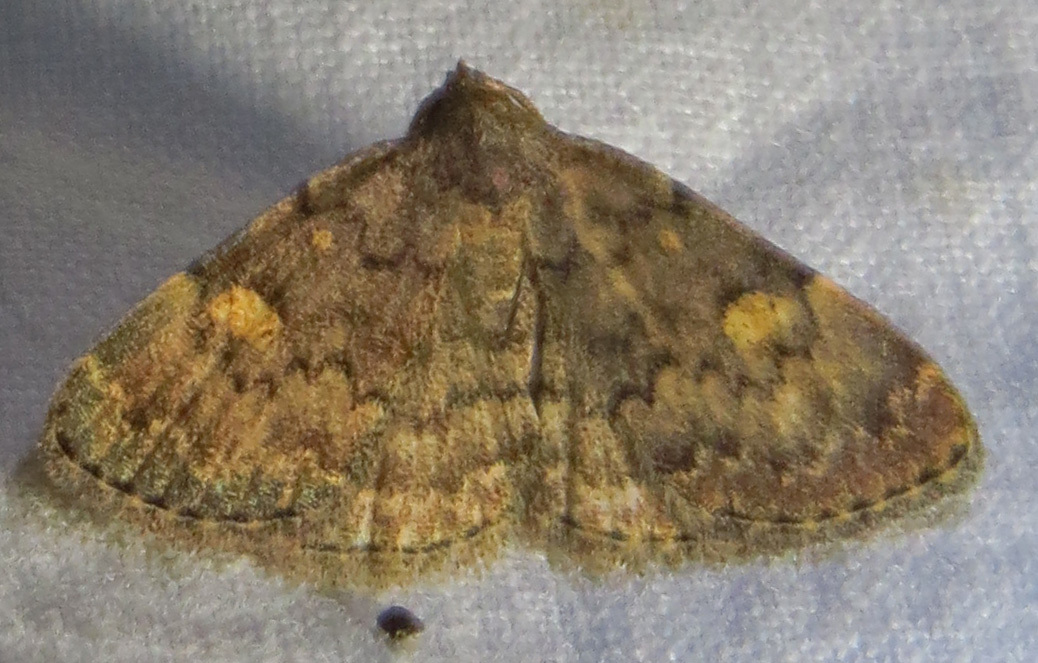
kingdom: Animalia
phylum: Arthropoda
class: Insecta
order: Lepidoptera
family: Erebidae
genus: Idia
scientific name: Idia aemula
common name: Common idia moth
